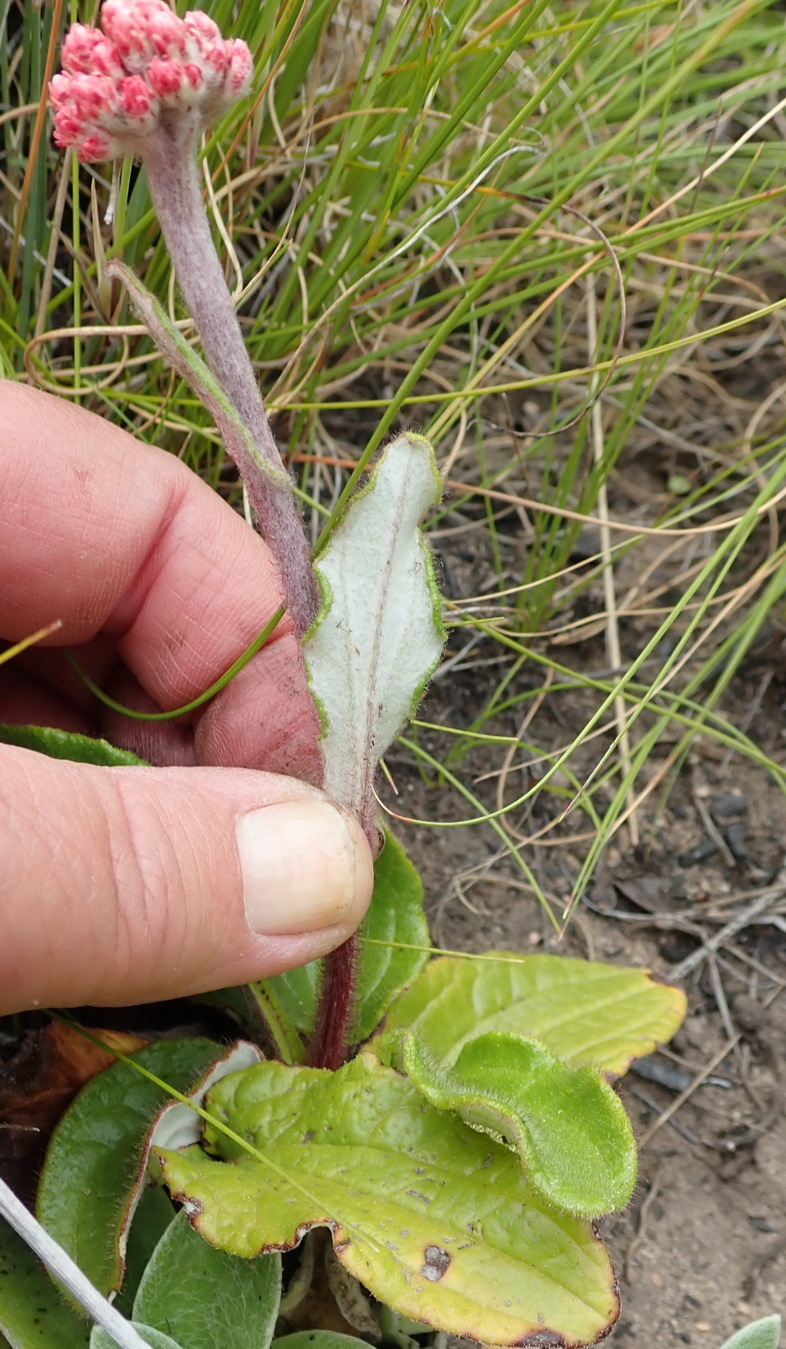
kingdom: Plantae
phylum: Tracheophyta
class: Magnoliopsida
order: Asterales
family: Asteraceae
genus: Helichrysum
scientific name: Helichrysum nudifolium
